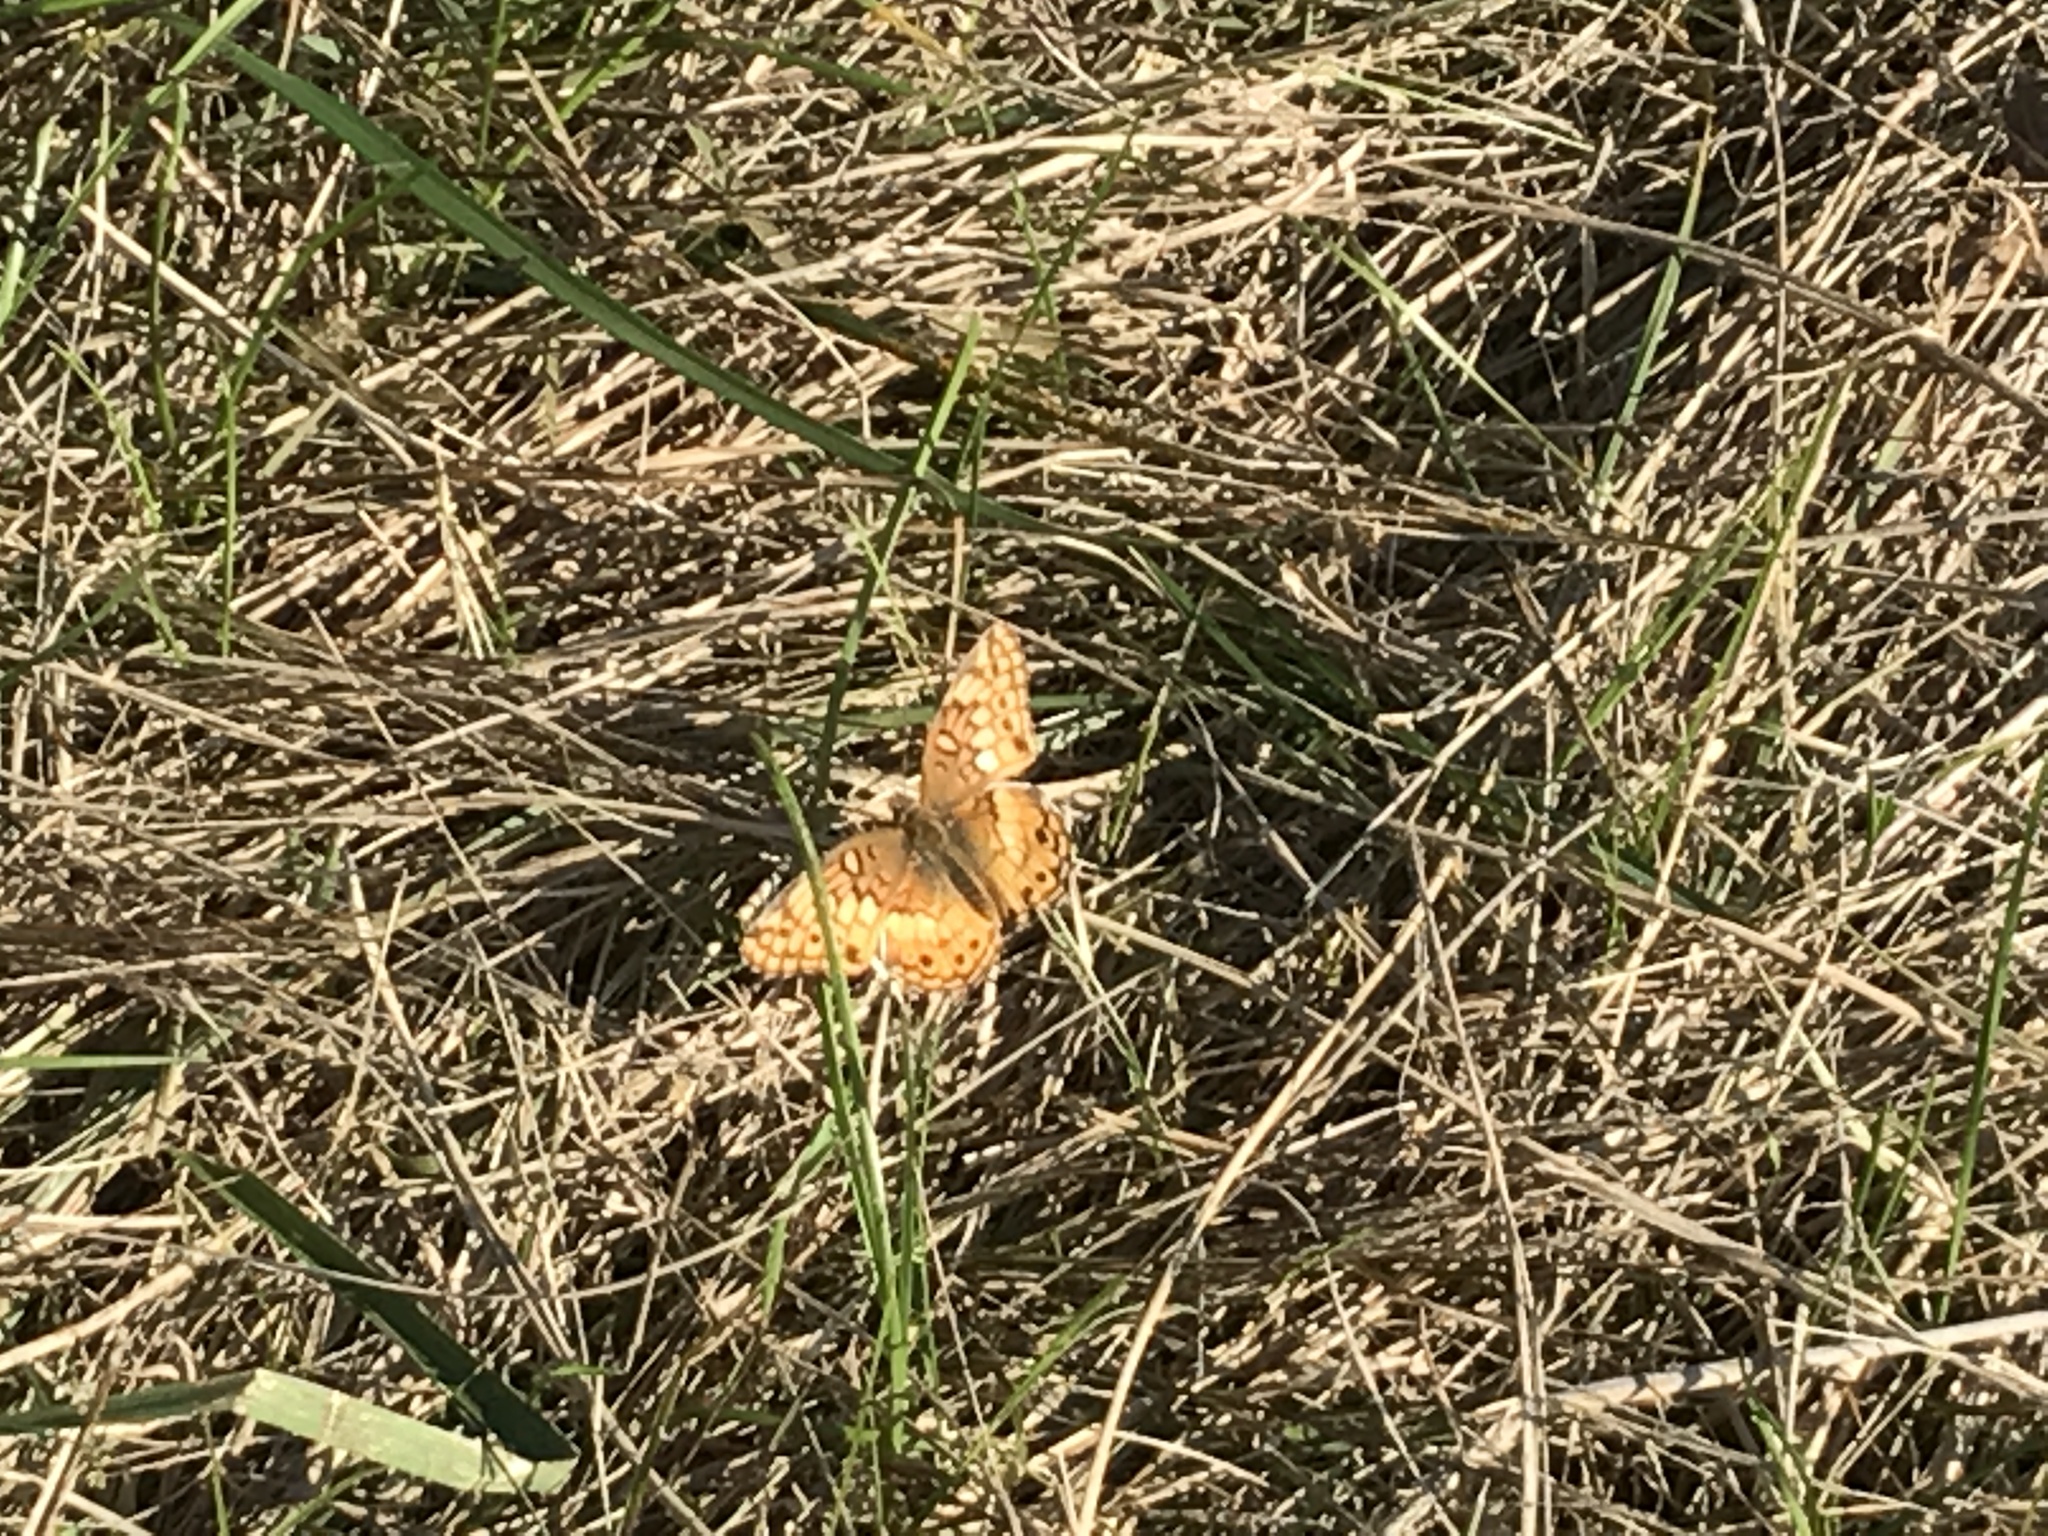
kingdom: Animalia
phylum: Arthropoda
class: Insecta
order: Lepidoptera
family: Nymphalidae
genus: Euptoieta
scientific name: Euptoieta claudia
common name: Variegated fritillary
